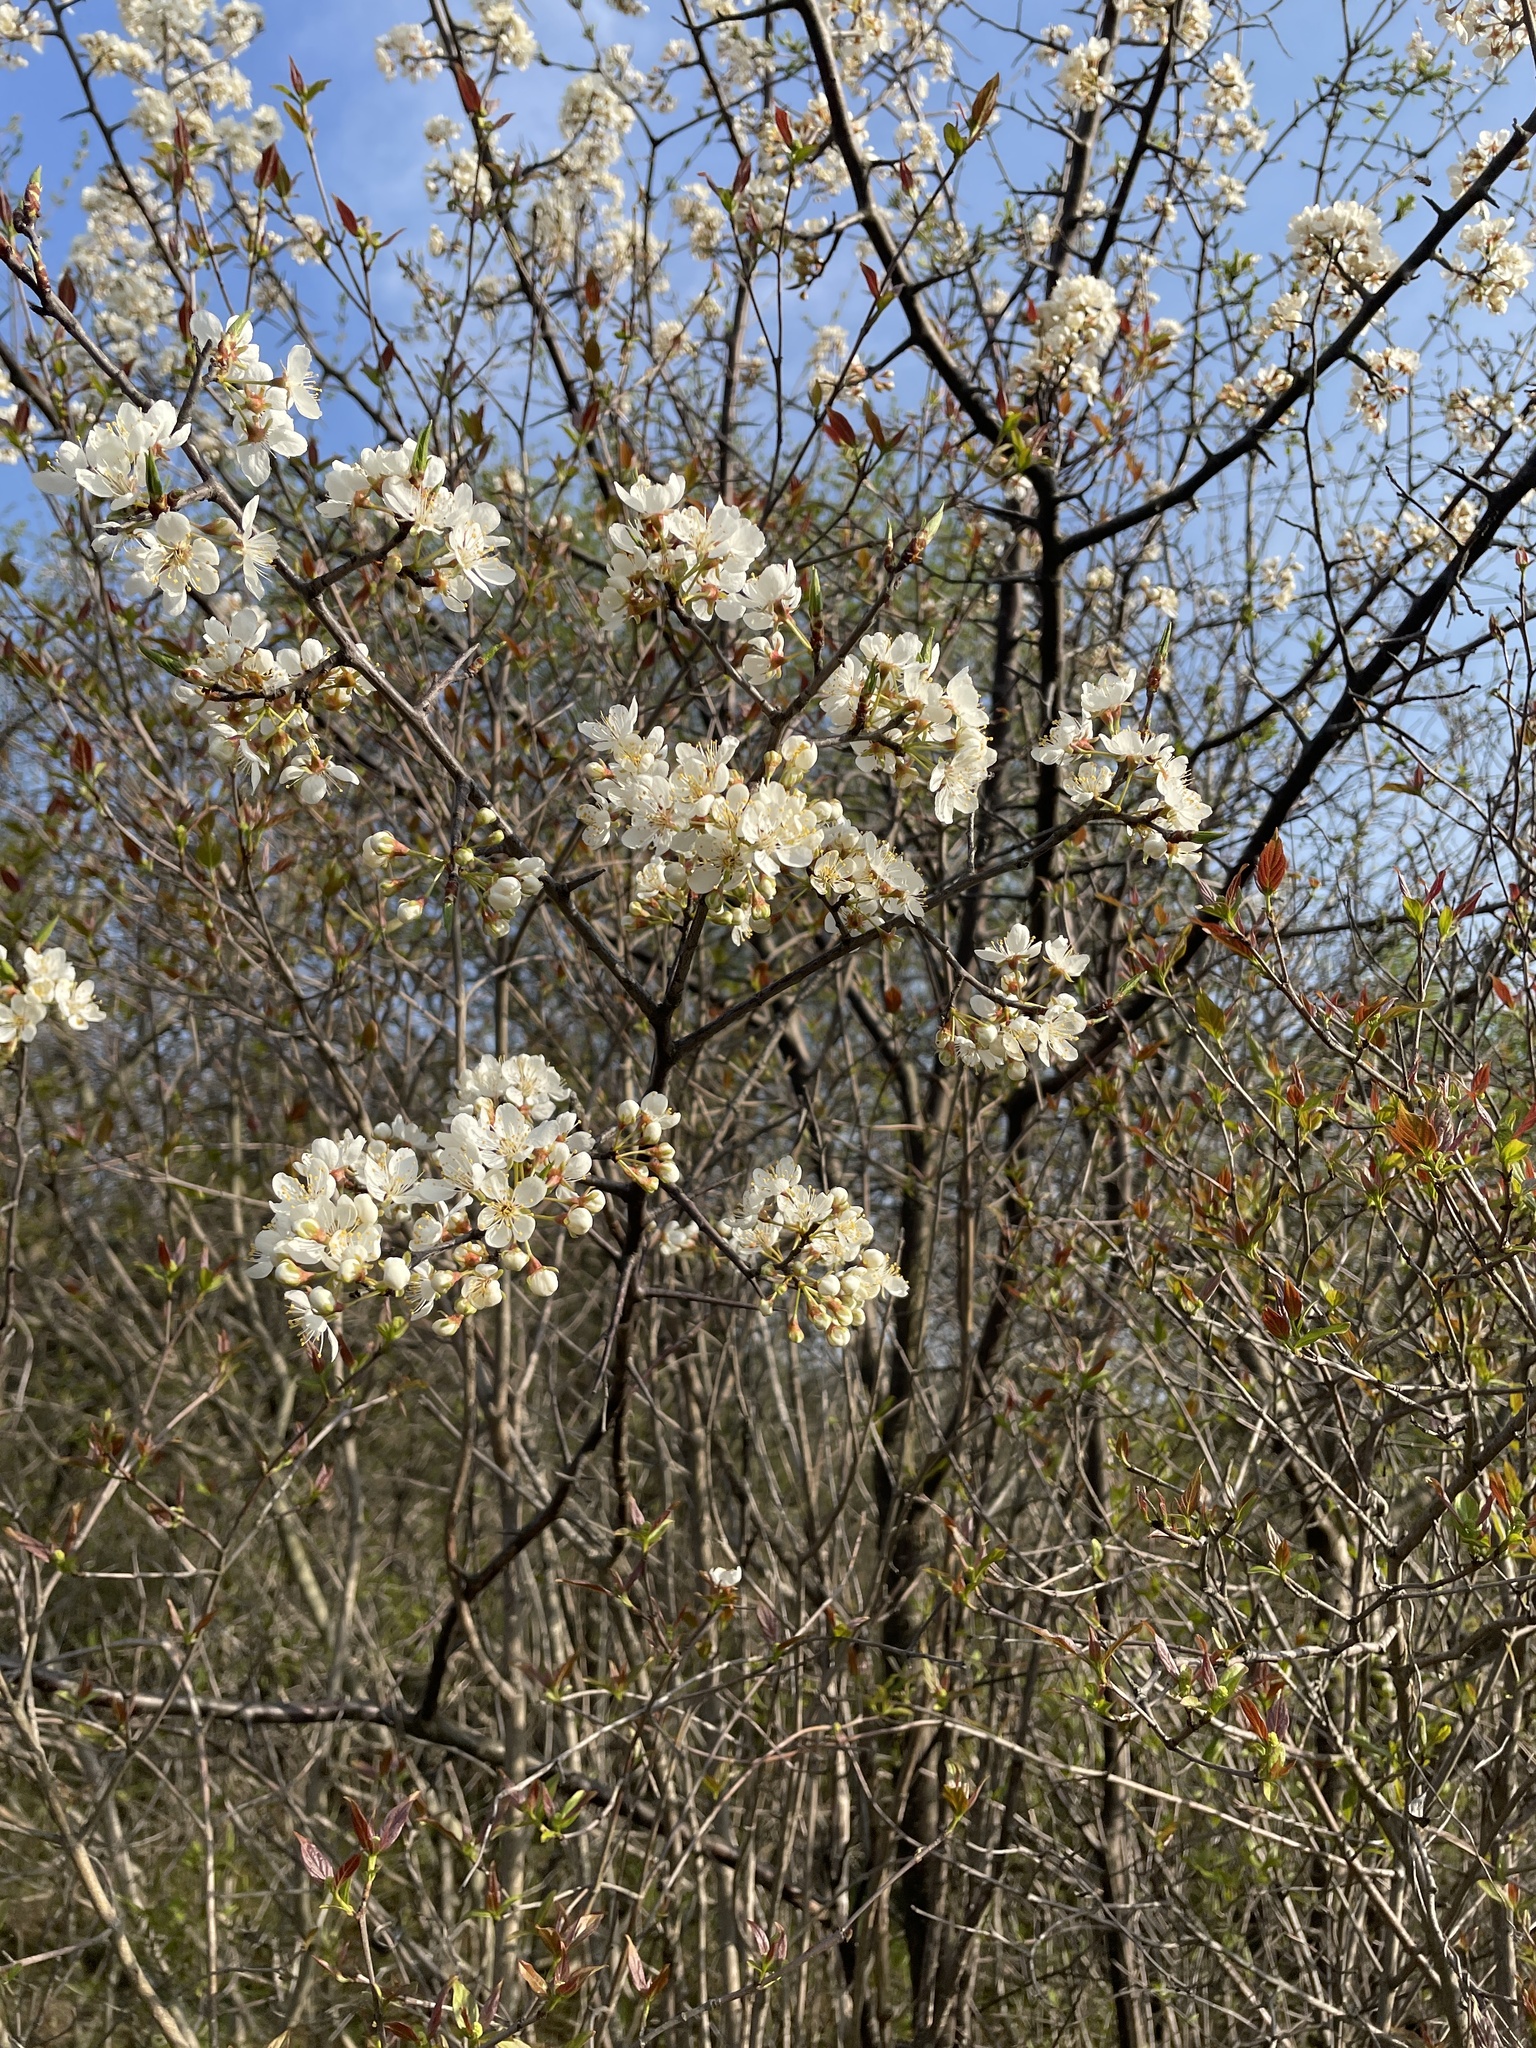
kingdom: Plantae
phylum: Tracheophyta
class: Magnoliopsida
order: Rosales
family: Rosaceae
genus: Prunus
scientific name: Prunus americana
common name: American plum
